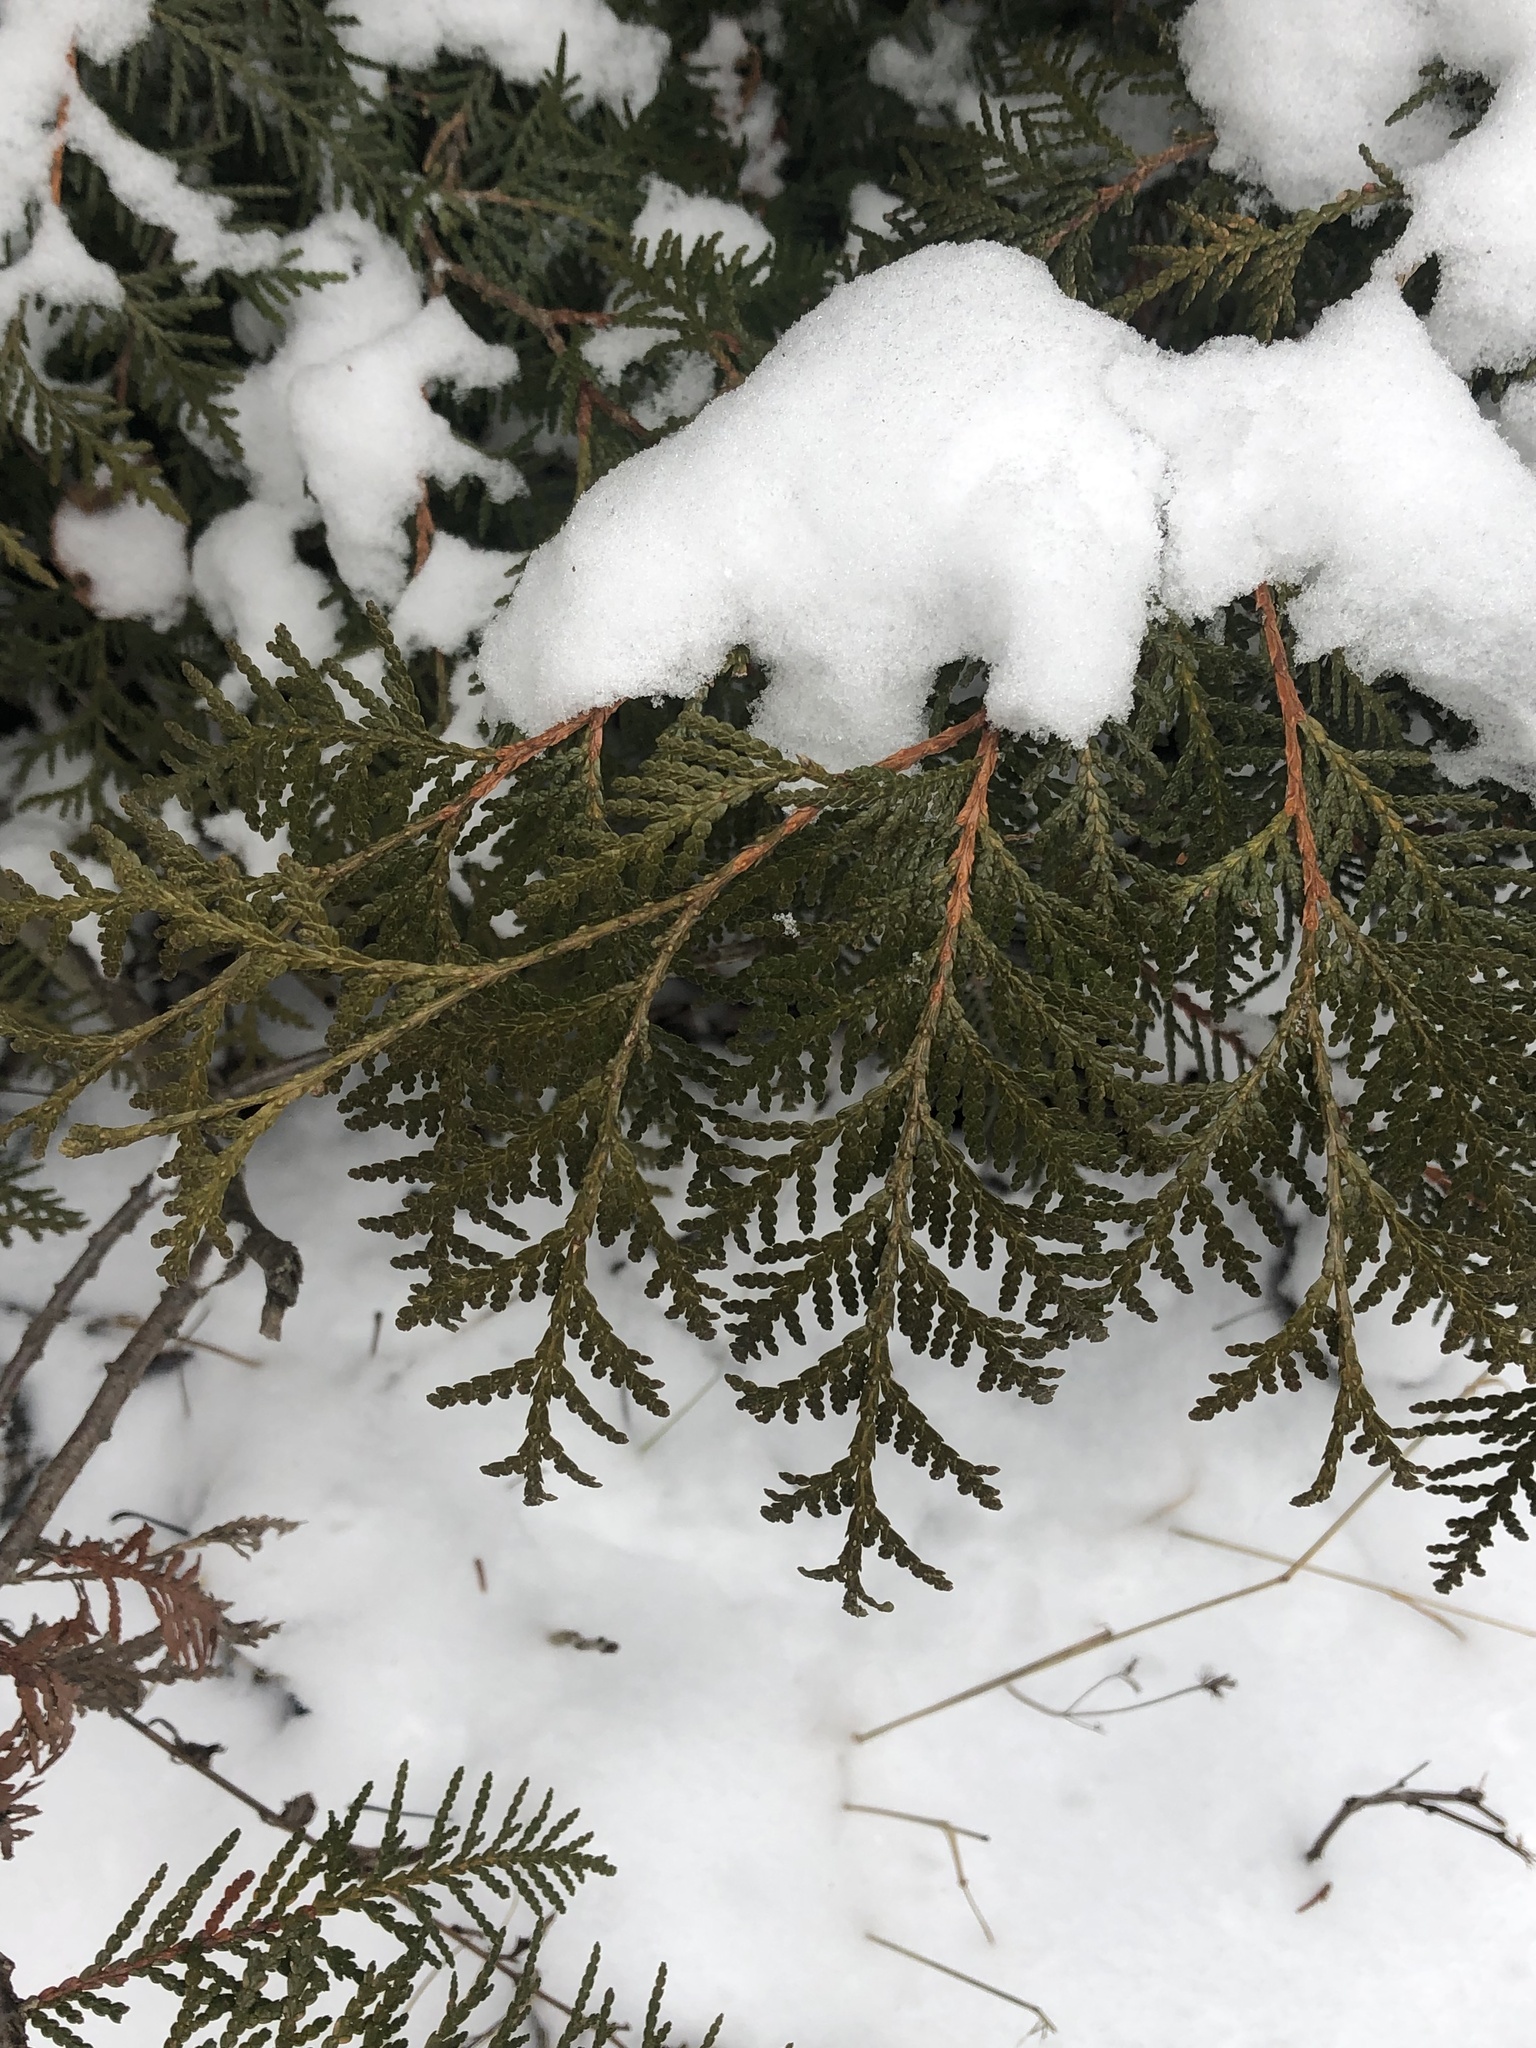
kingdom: Plantae
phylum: Tracheophyta
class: Pinopsida
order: Pinales
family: Cupressaceae
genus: Thuja
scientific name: Thuja occidentalis
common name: Northern white-cedar
